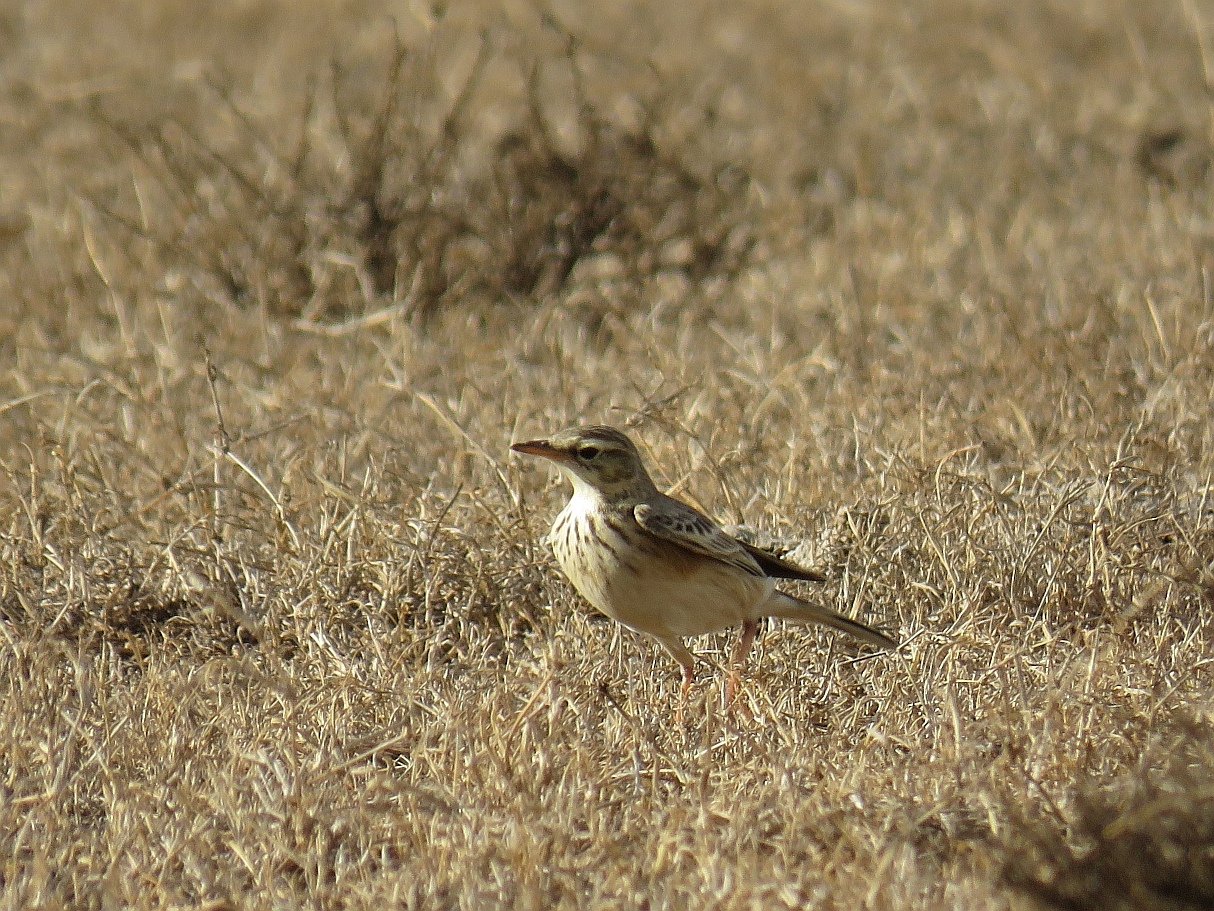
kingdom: Animalia
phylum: Chordata
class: Aves
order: Passeriformes
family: Motacillidae
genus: Anthus
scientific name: Anthus cinnamomeus
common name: African pipit
